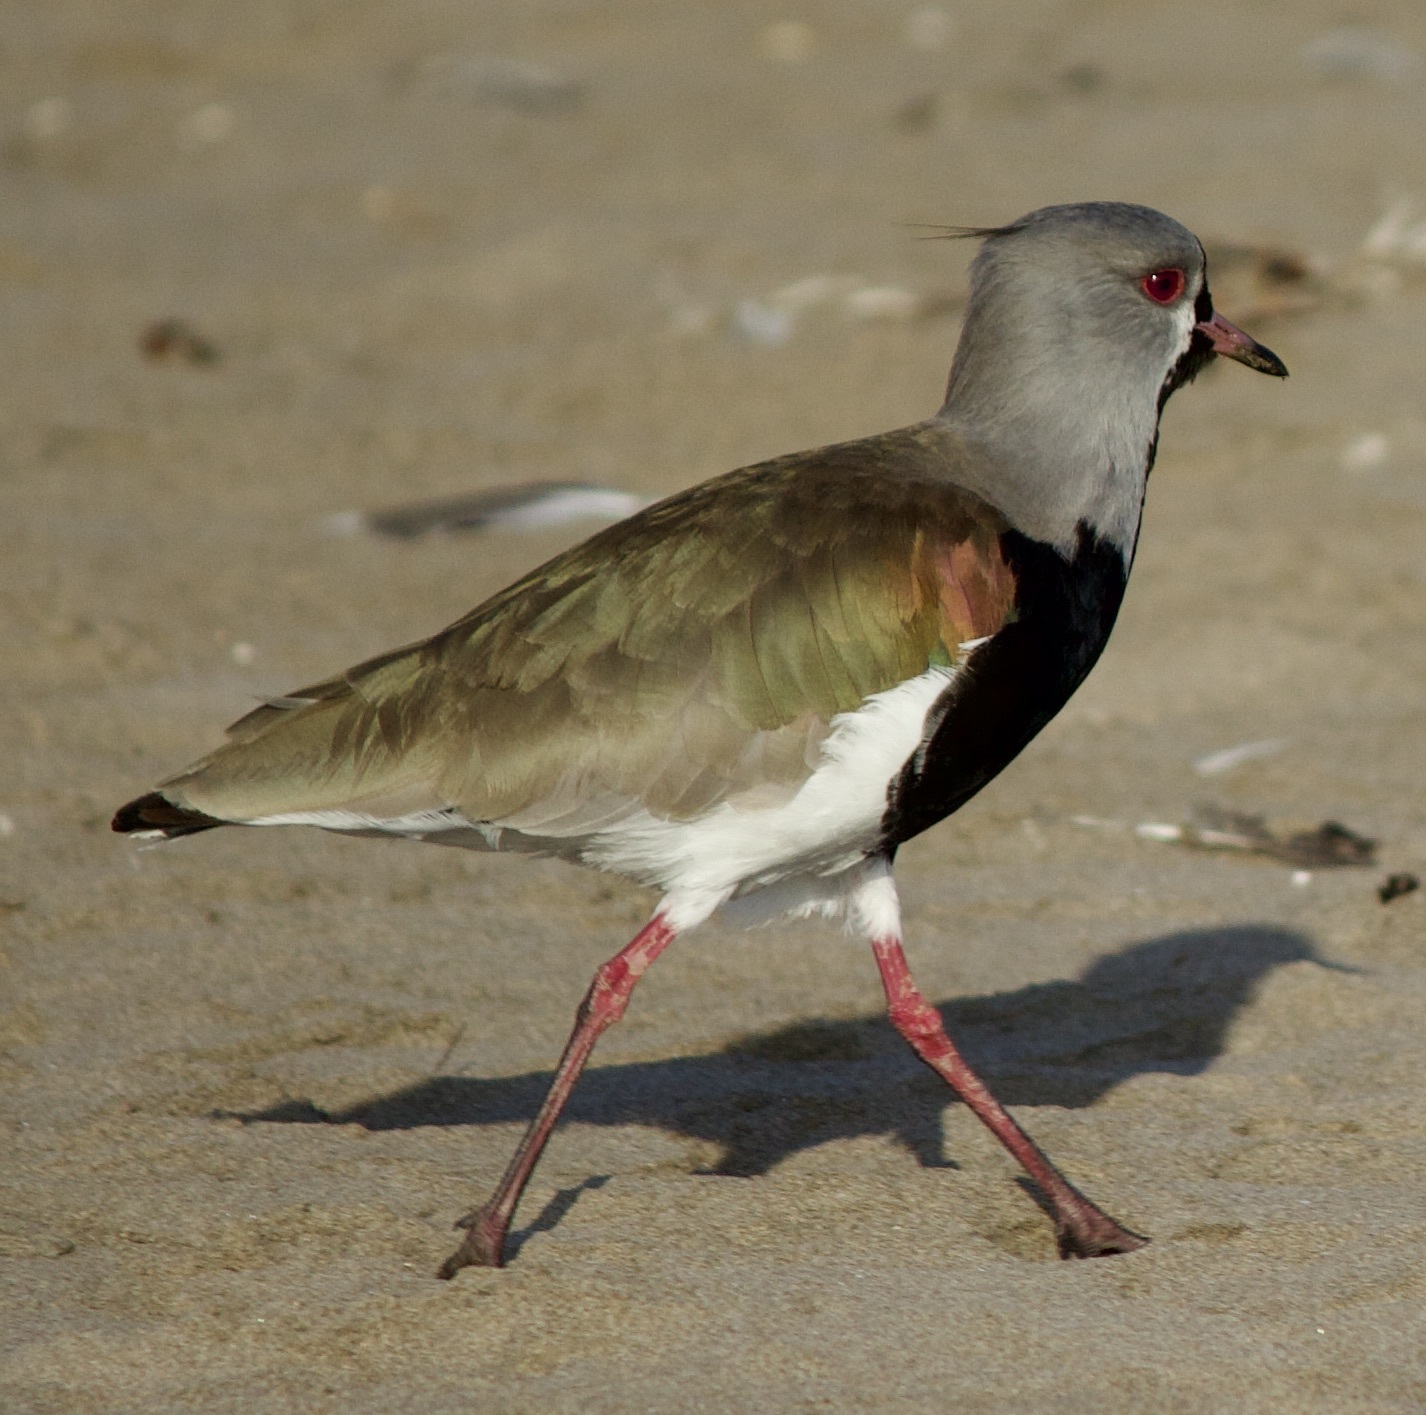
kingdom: Animalia
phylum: Chordata
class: Aves
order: Charadriiformes
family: Charadriidae
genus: Vanellus
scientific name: Vanellus chilensis
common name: Southern lapwing
